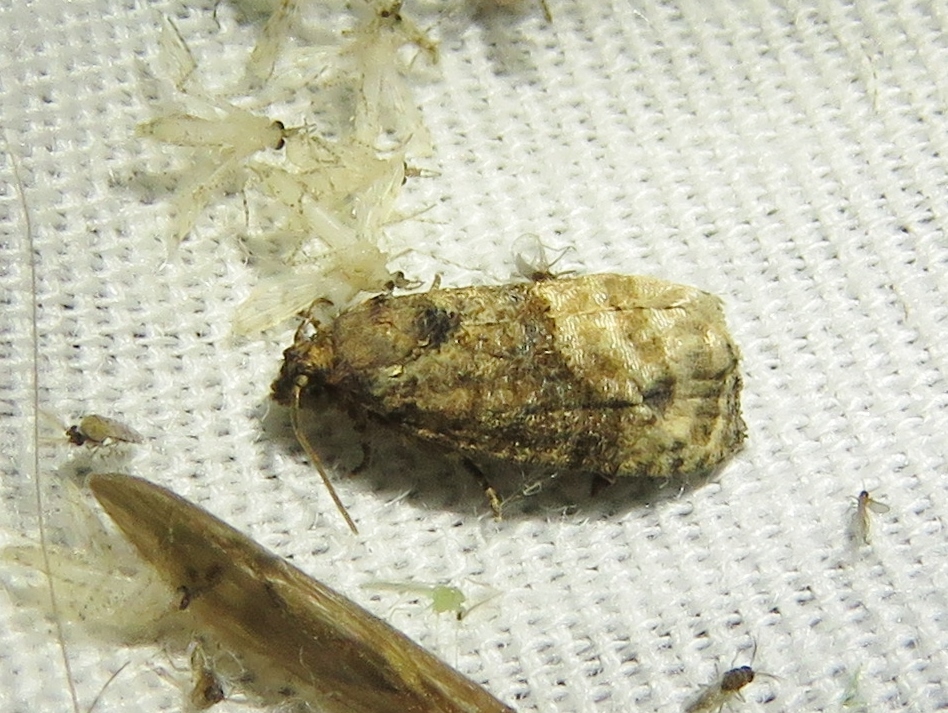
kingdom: Animalia
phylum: Arthropoda
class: Insecta
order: Lepidoptera
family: Tortricidae
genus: Ecdytolopha
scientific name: Ecdytolopha mana
